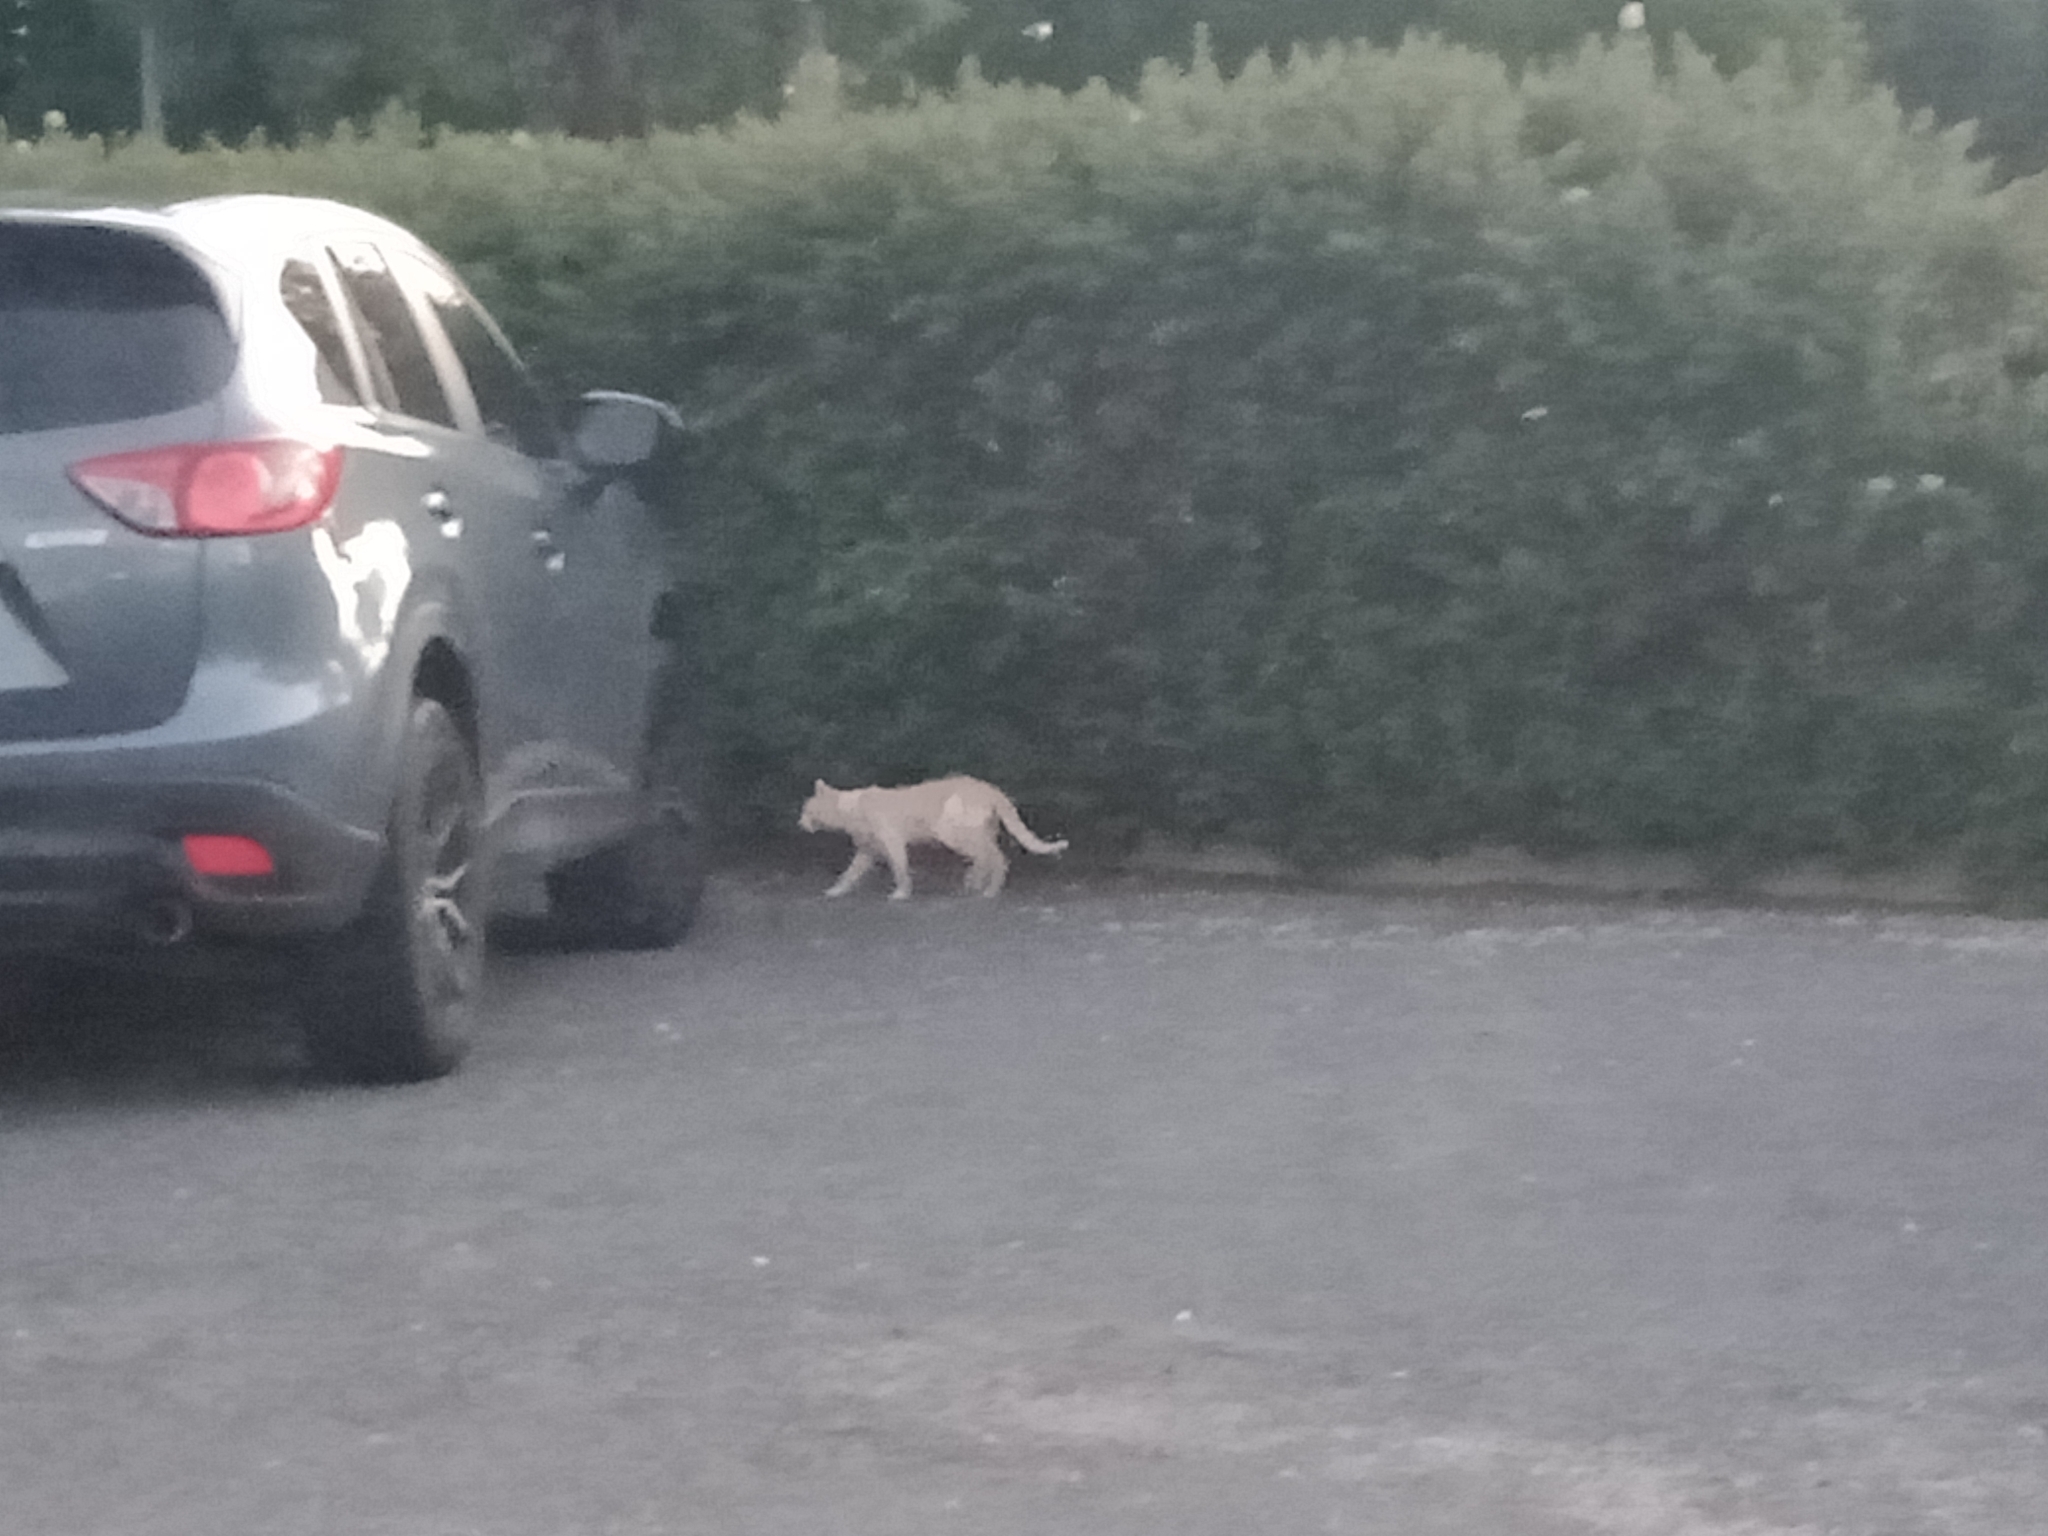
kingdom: Animalia
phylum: Chordata
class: Mammalia
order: Carnivora
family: Felidae
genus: Felis
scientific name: Felis catus
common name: Domestic cat
